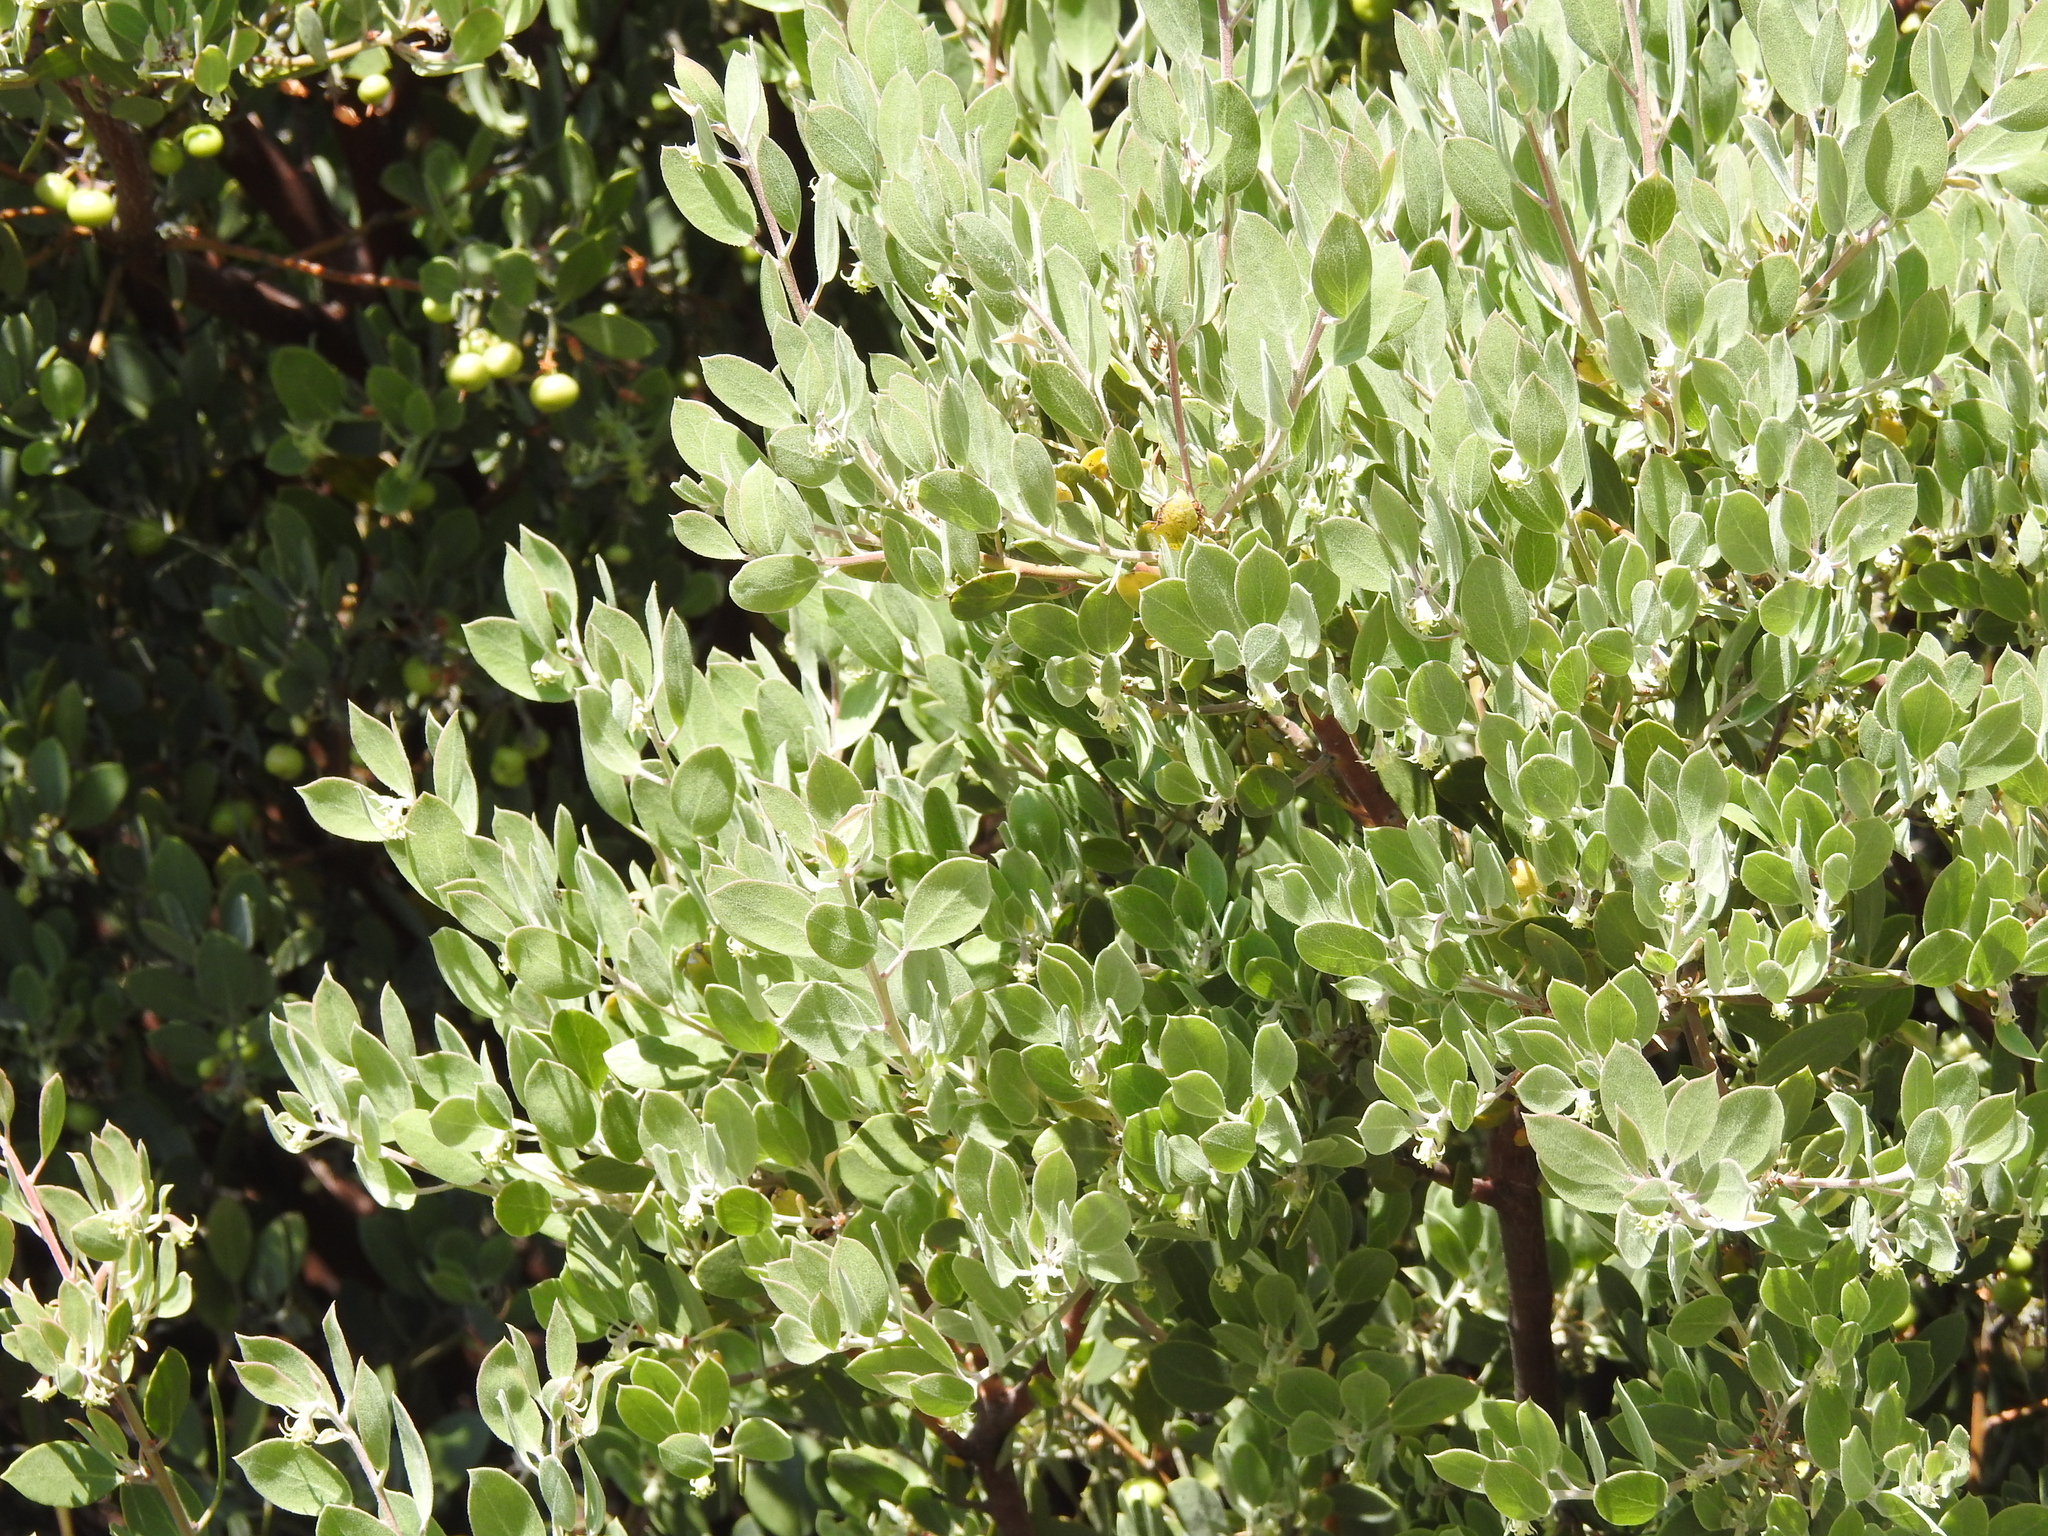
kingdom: Plantae
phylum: Tracheophyta
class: Magnoliopsida
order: Ericales
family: Ericaceae
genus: Arctostaphylos
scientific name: Arctostaphylos pungens
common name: Mexican manzanita
